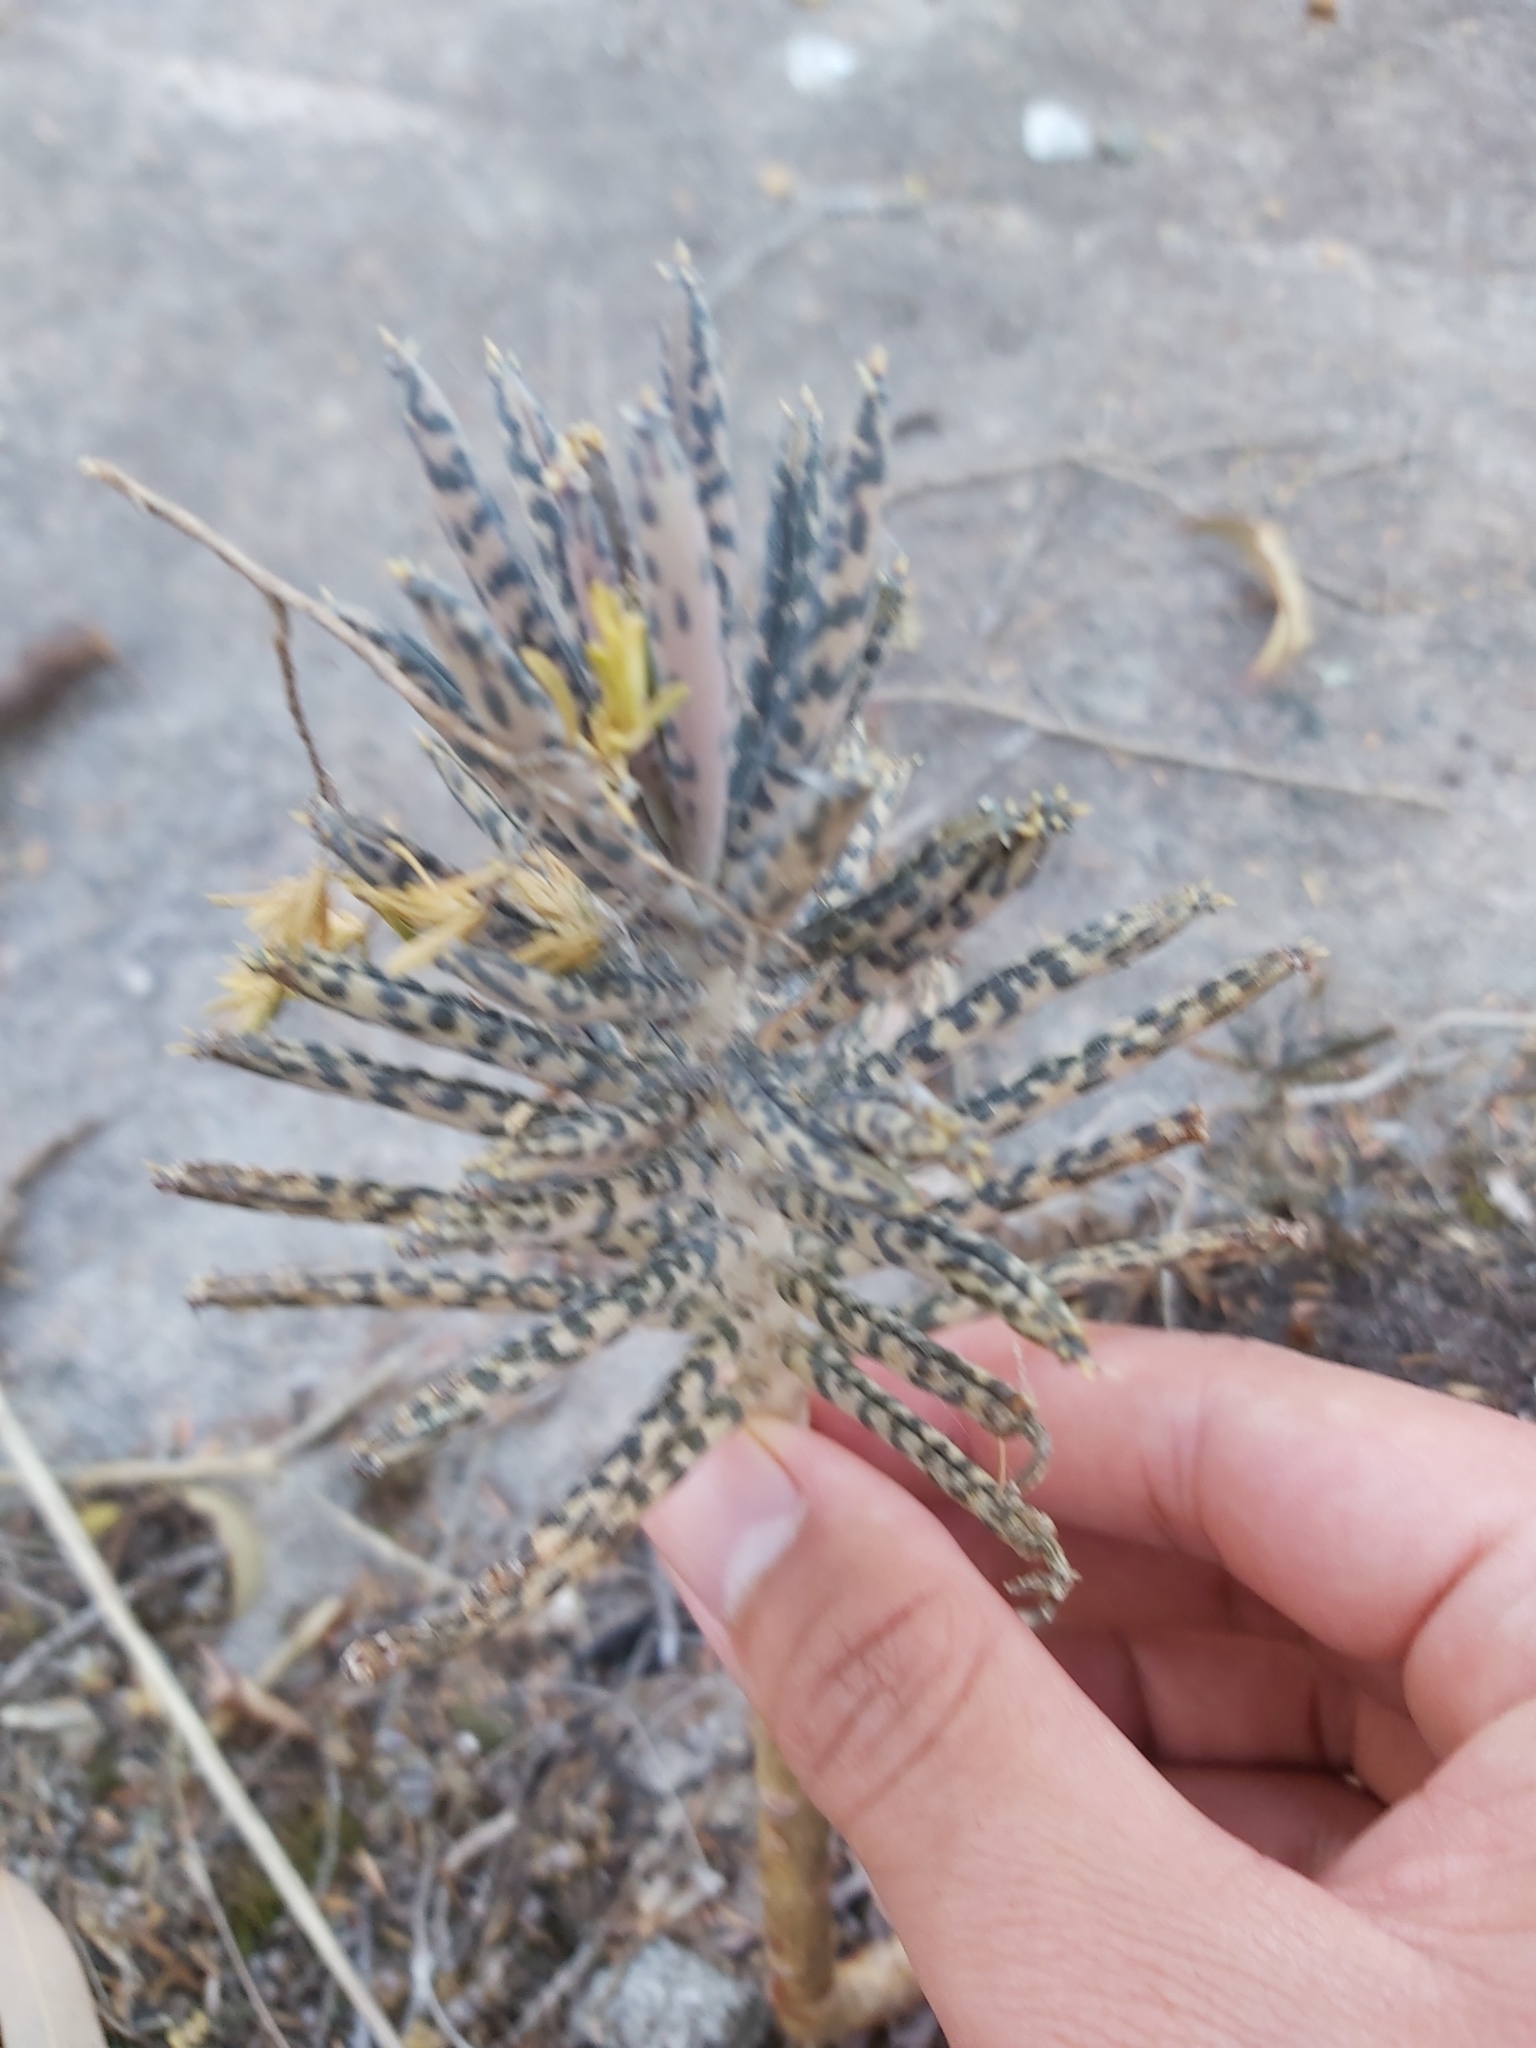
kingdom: Plantae
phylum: Tracheophyta
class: Magnoliopsida
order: Saxifragales
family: Crassulaceae
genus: Kalanchoe
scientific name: Kalanchoe delagoensis
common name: Chandelier plant
